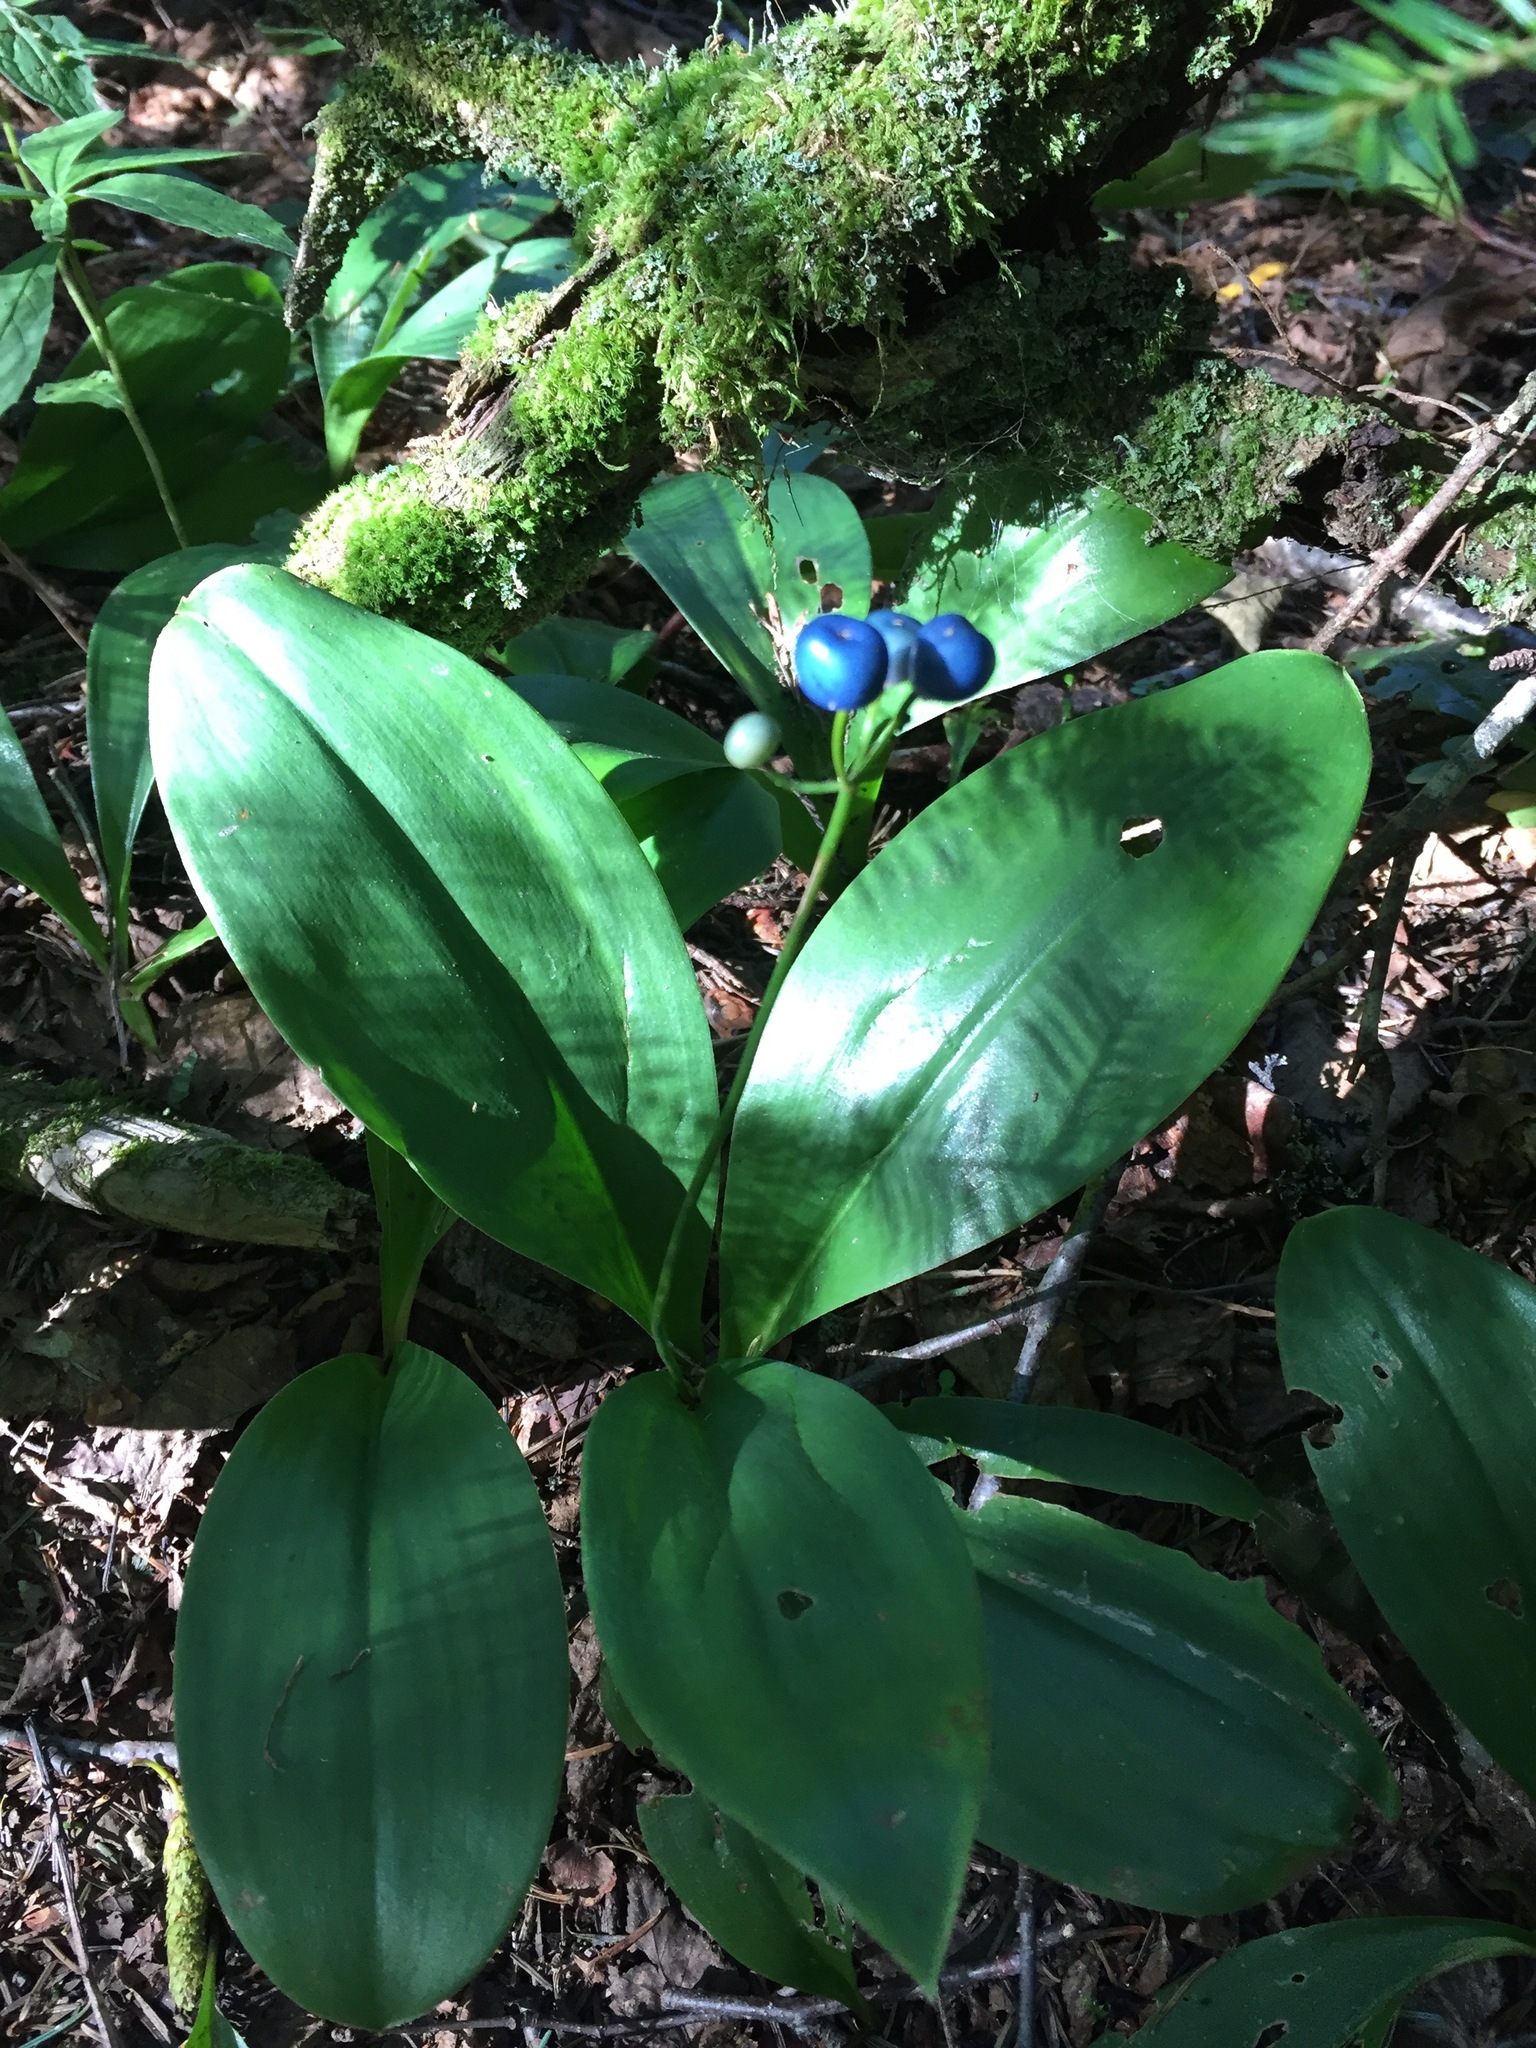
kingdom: Plantae
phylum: Tracheophyta
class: Liliopsida
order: Liliales
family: Liliaceae
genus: Clintonia
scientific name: Clintonia borealis
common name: Yellow clintonia
